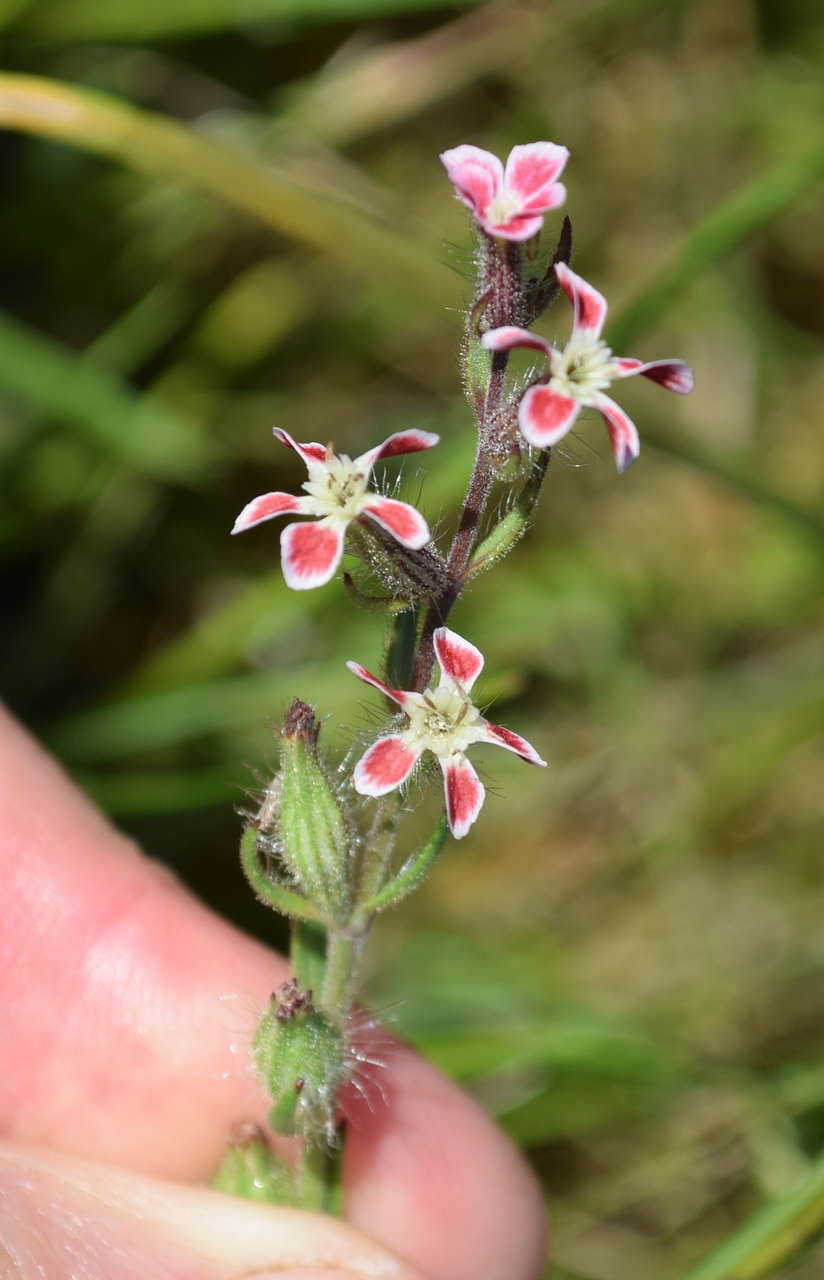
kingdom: Plantae
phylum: Tracheophyta
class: Magnoliopsida
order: Caryophyllales
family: Caryophyllaceae
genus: Silene
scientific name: Silene gallica
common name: Small-flowered catchfly
